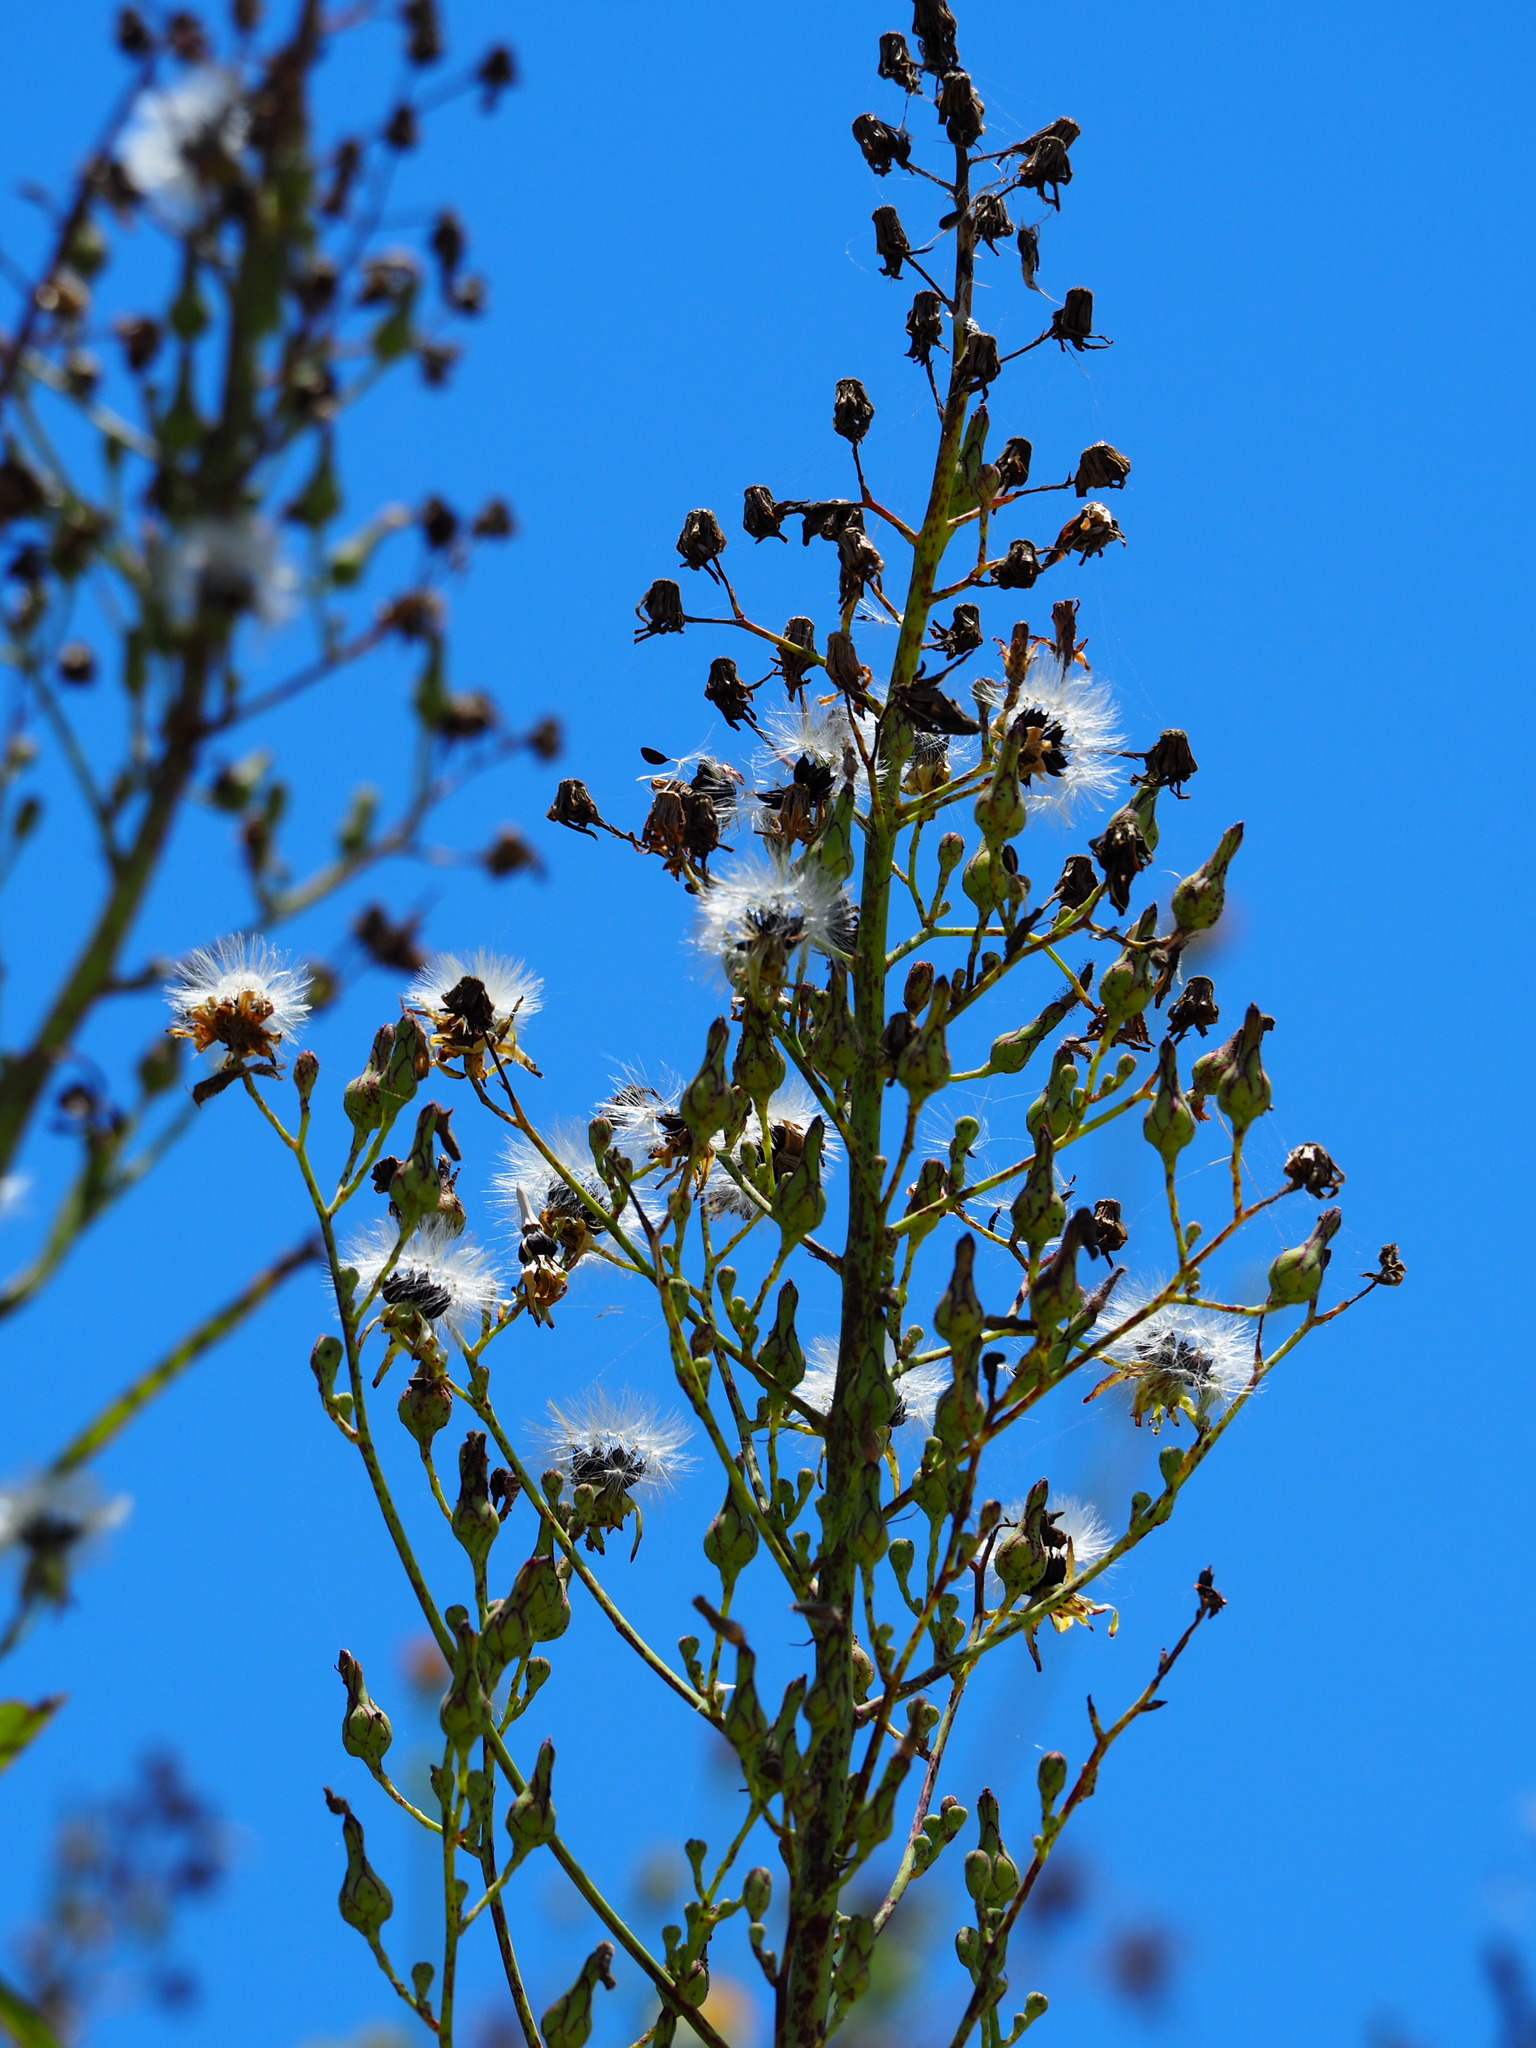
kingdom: Plantae
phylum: Tracheophyta
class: Magnoliopsida
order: Asterales
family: Asteraceae
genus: Lactuca
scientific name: Lactuca indica
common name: Wild lettuce
